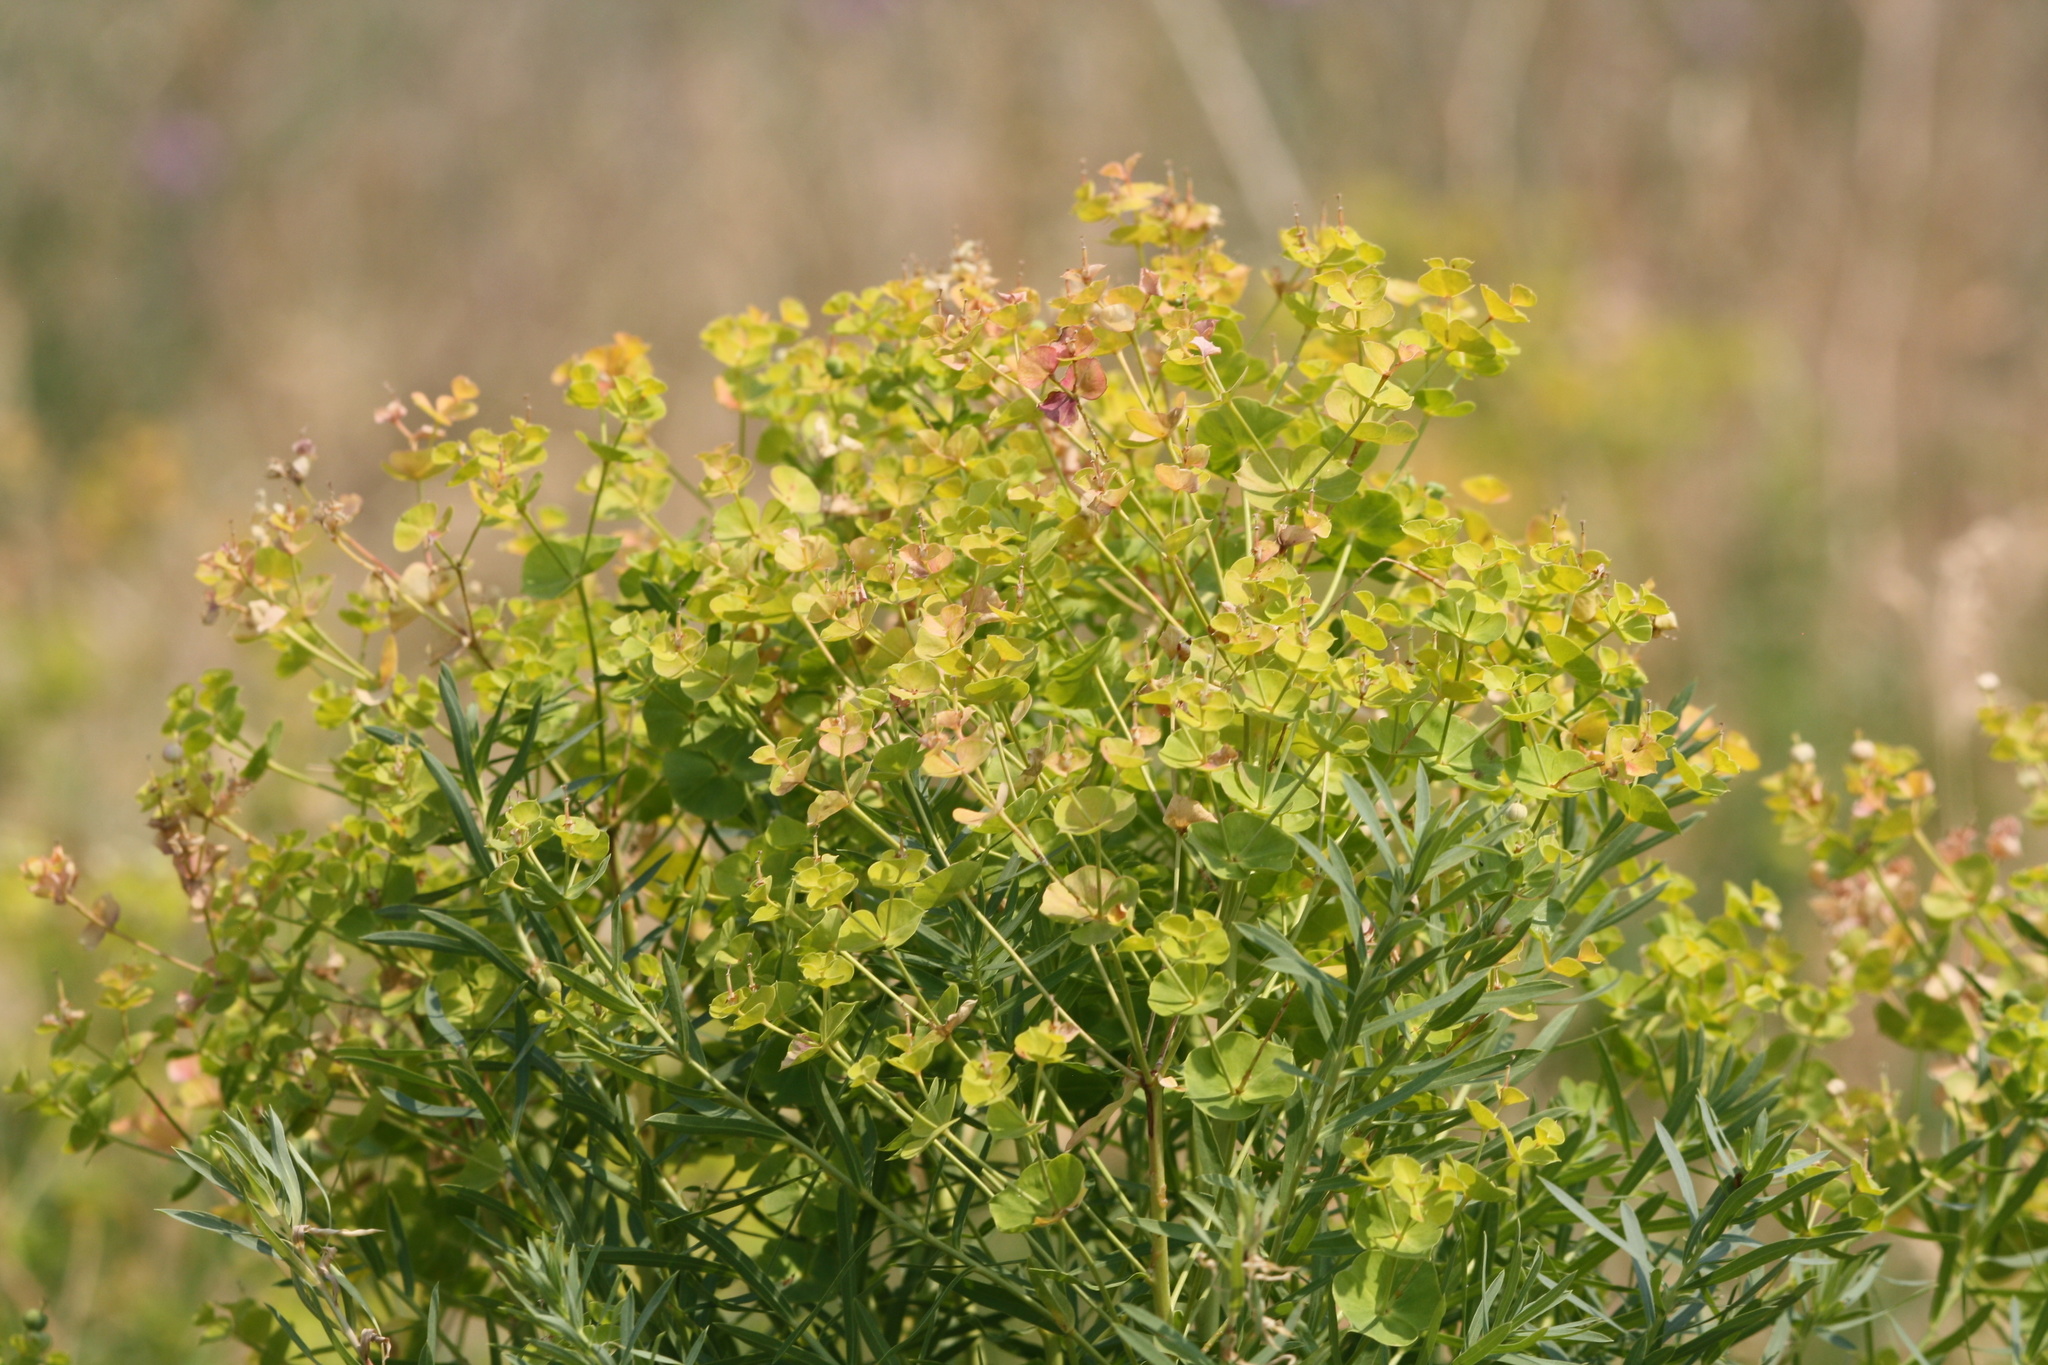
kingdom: Plantae
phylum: Tracheophyta
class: Magnoliopsida
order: Malpighiales
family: Euphorbiaceae
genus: Euphorbia
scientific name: Euphorbia virgata
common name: Leafy spurge
